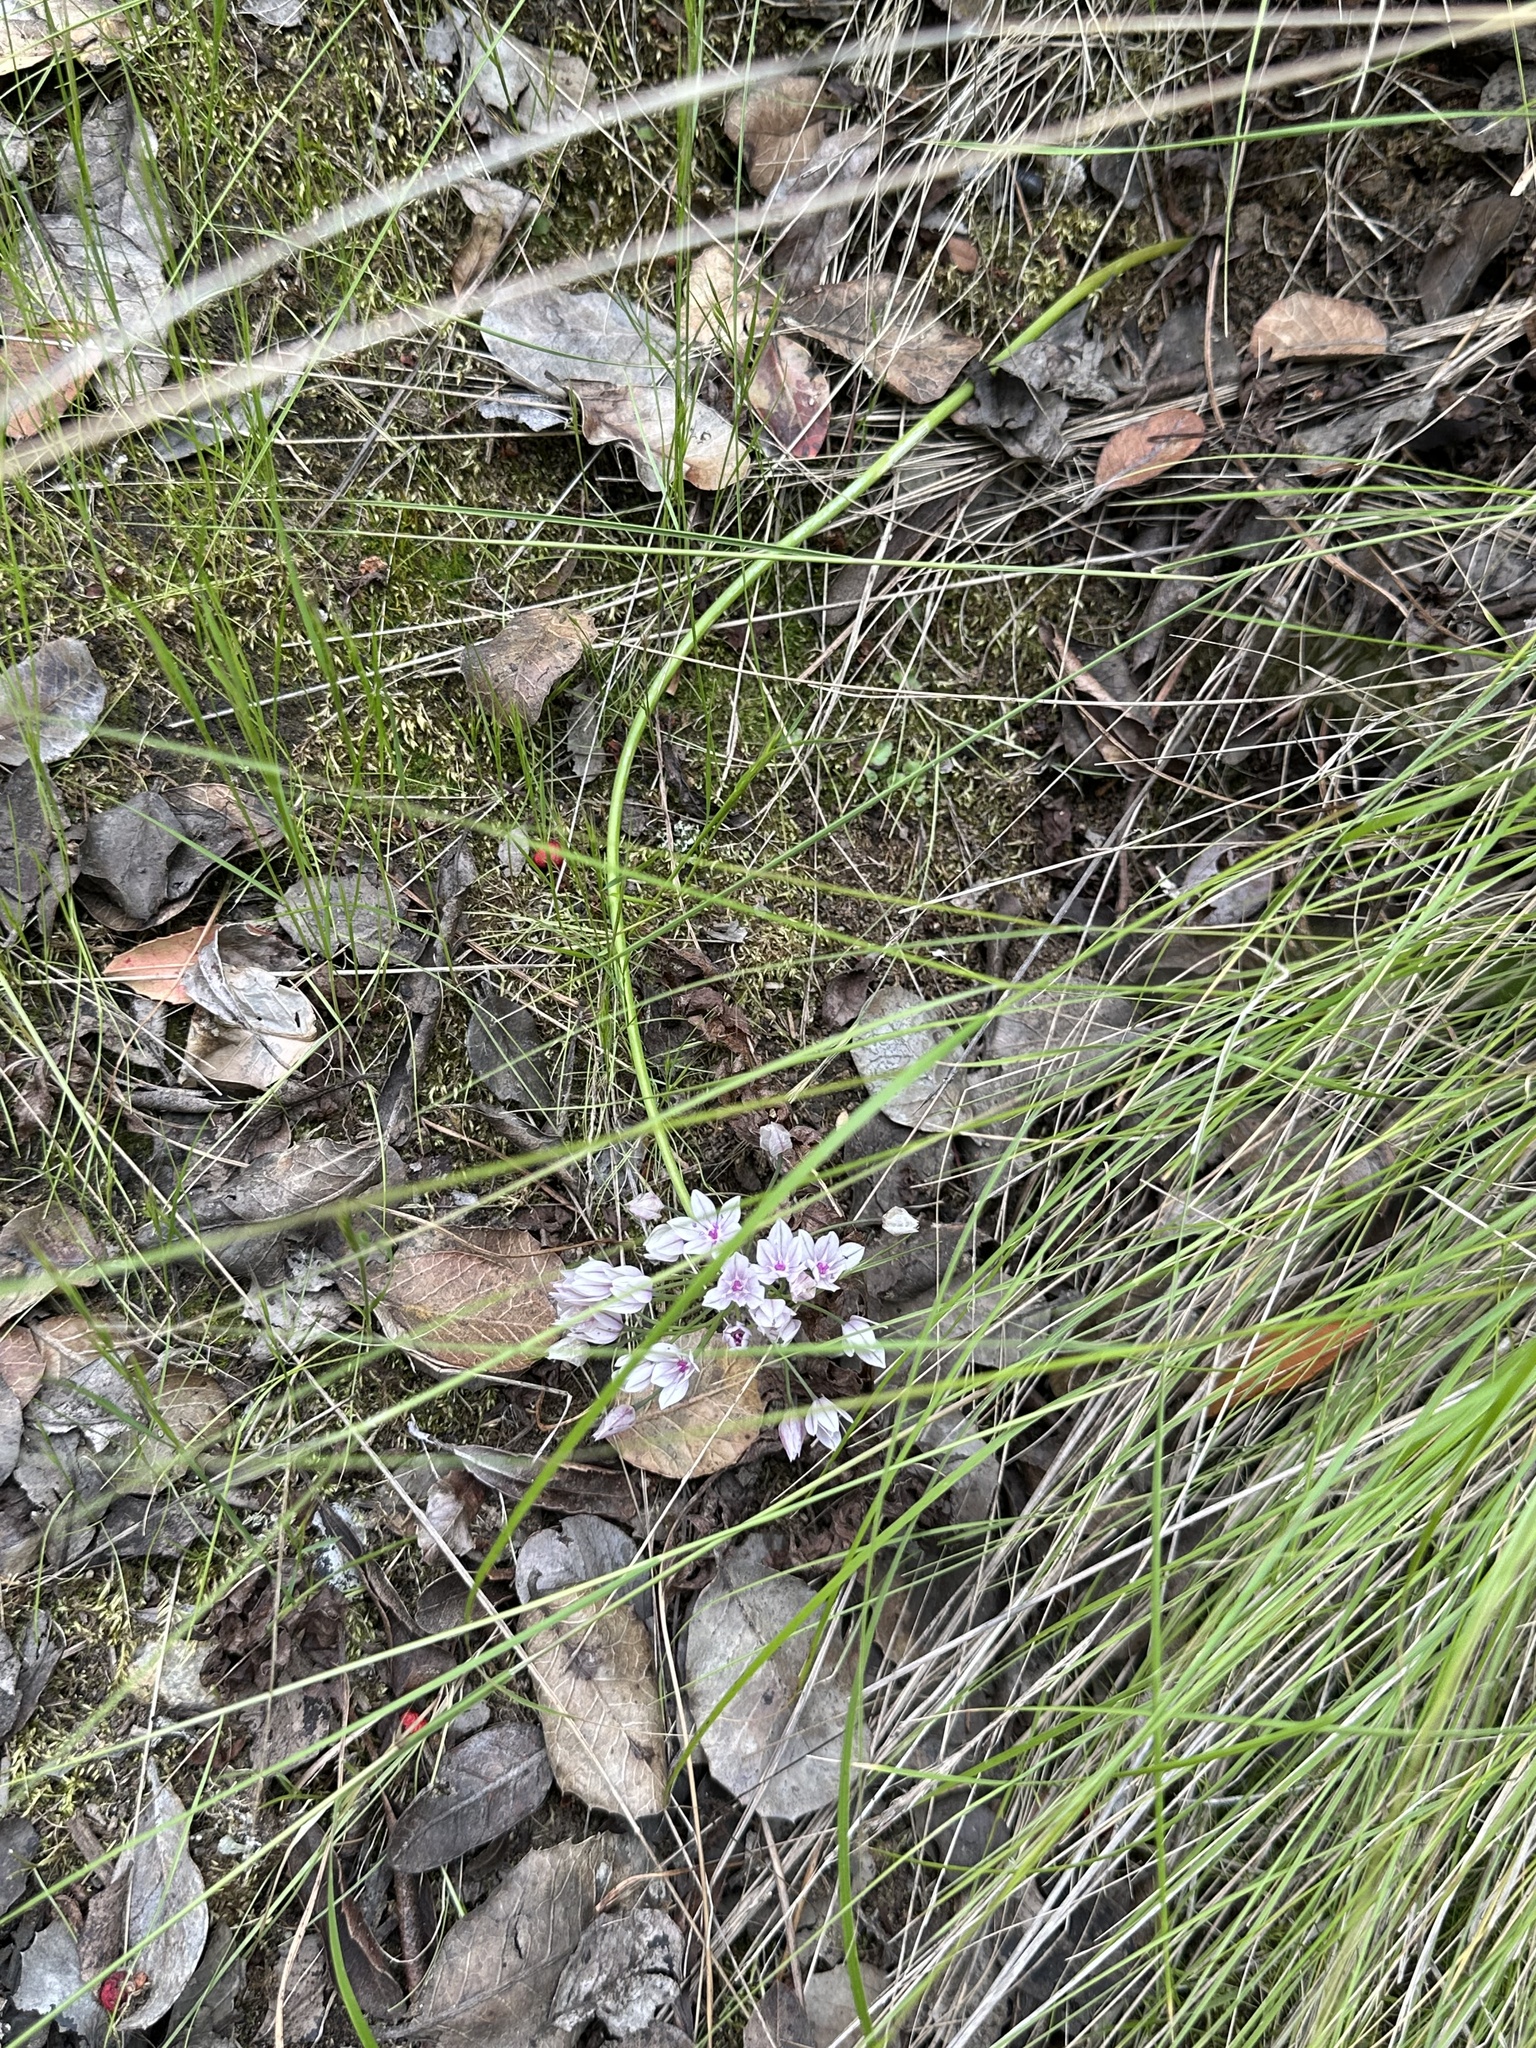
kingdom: Plantae
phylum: Tracheophyta
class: Liliopsida
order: Asparagales
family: Amaryllidaceae
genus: Allium
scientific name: Allium praecox
